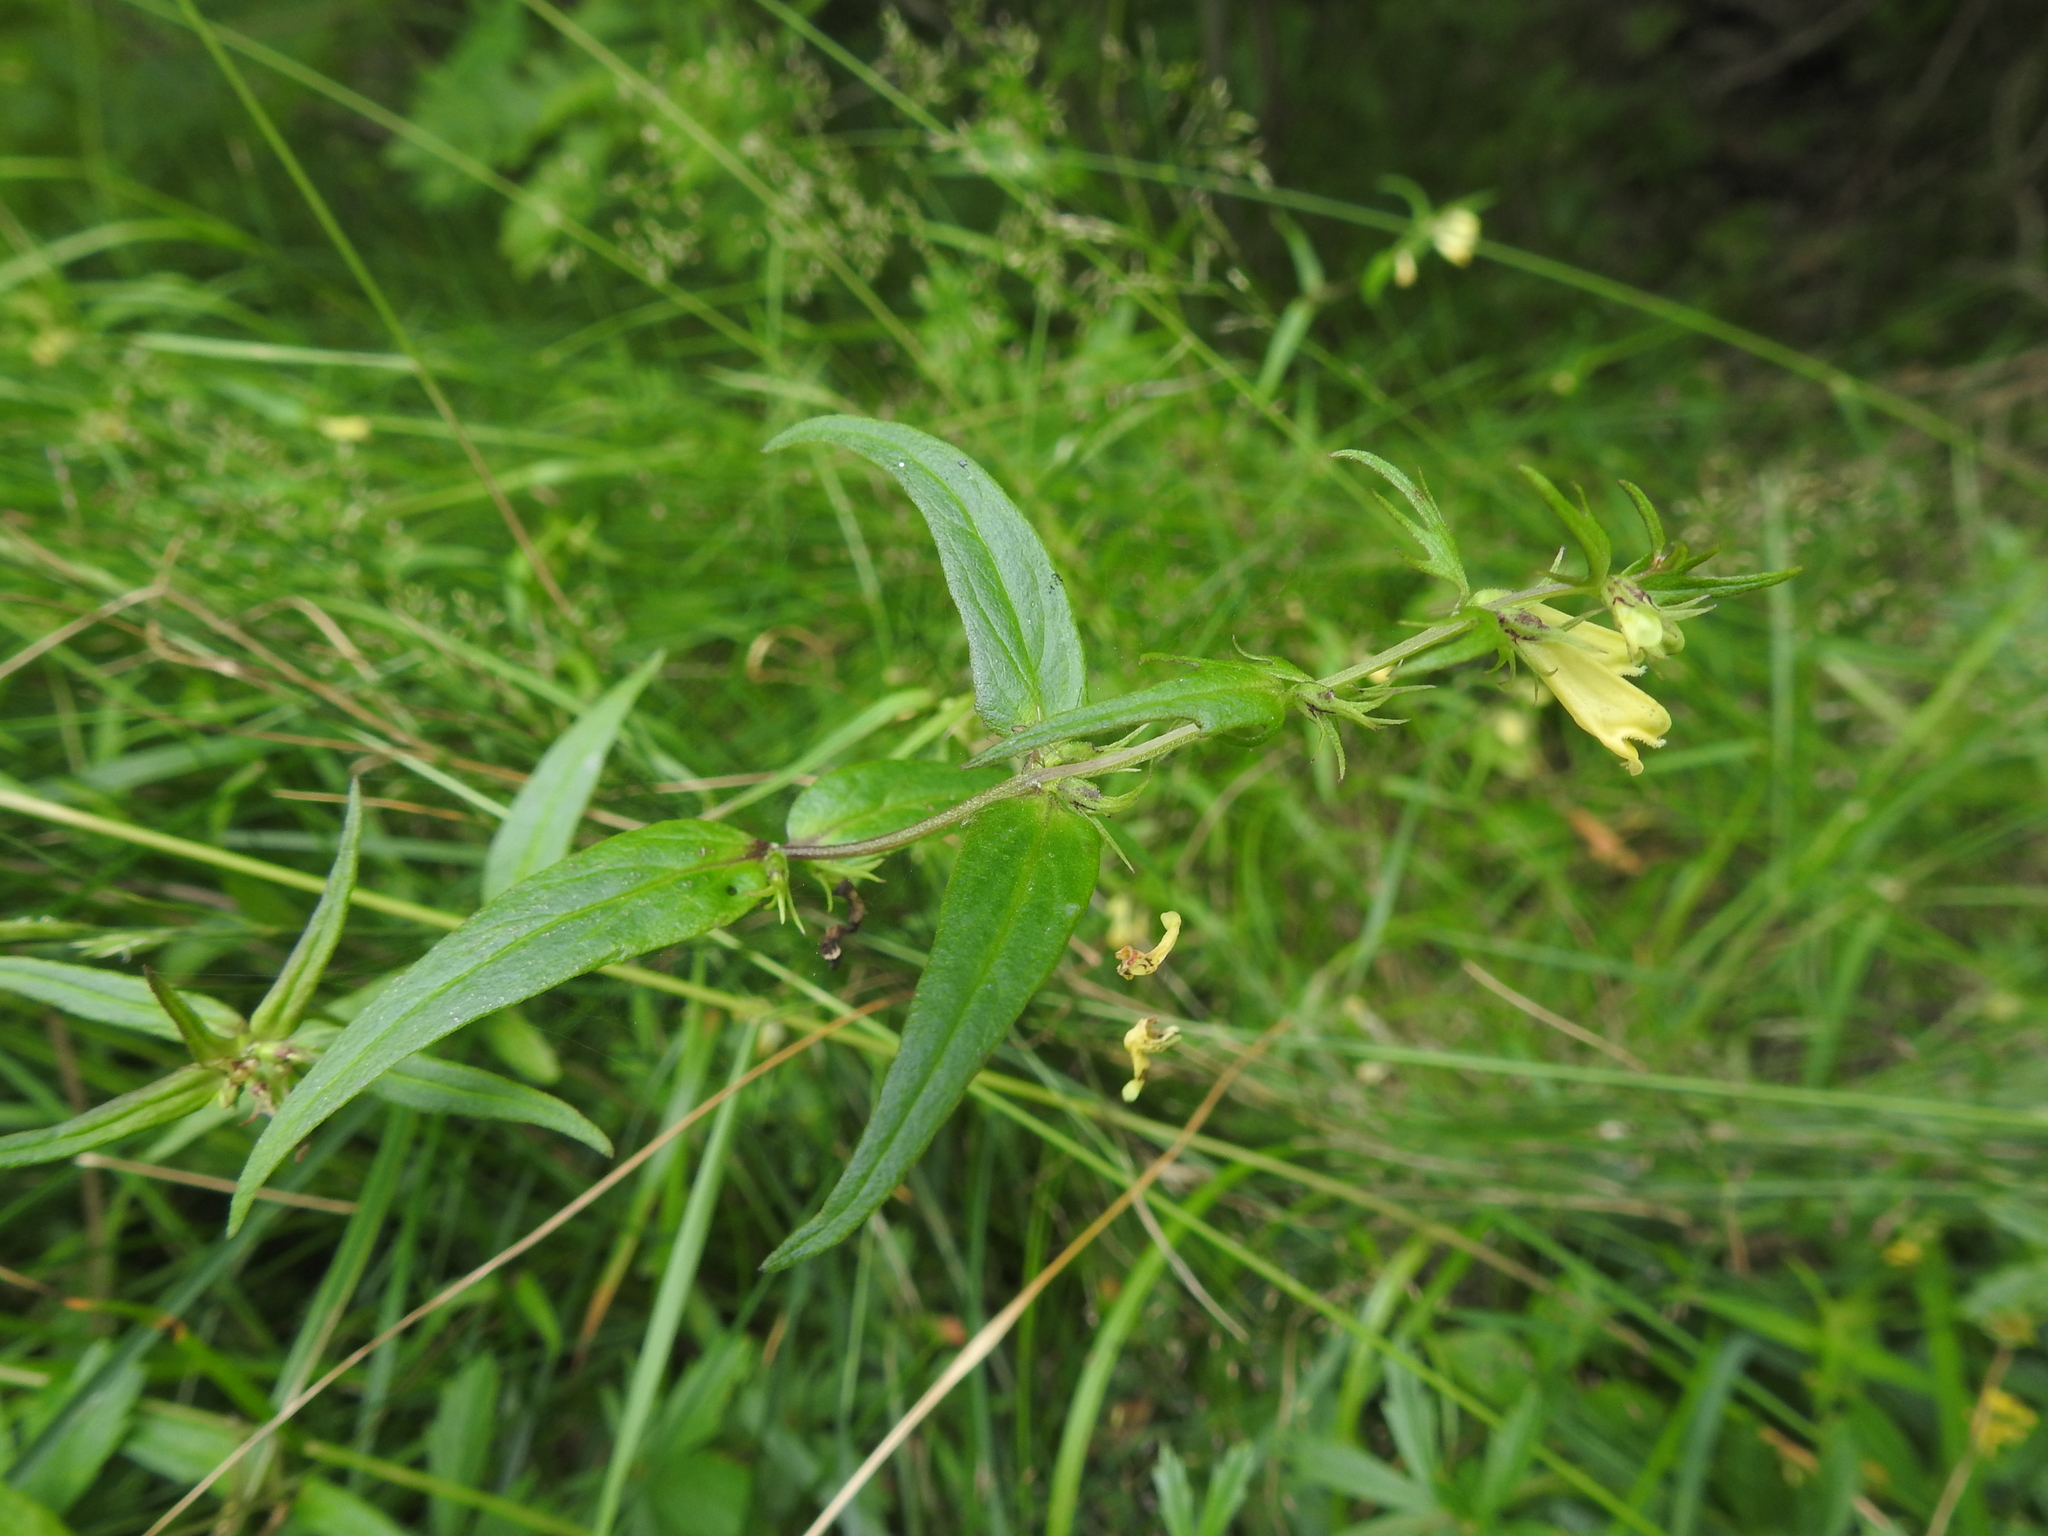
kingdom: Plantae
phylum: Tracheophyta
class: Magnoliopsida
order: Lamiales
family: Orobanchaceae
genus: Melampyrum
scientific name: Melampyrum pratense
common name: Common cow-wheat
